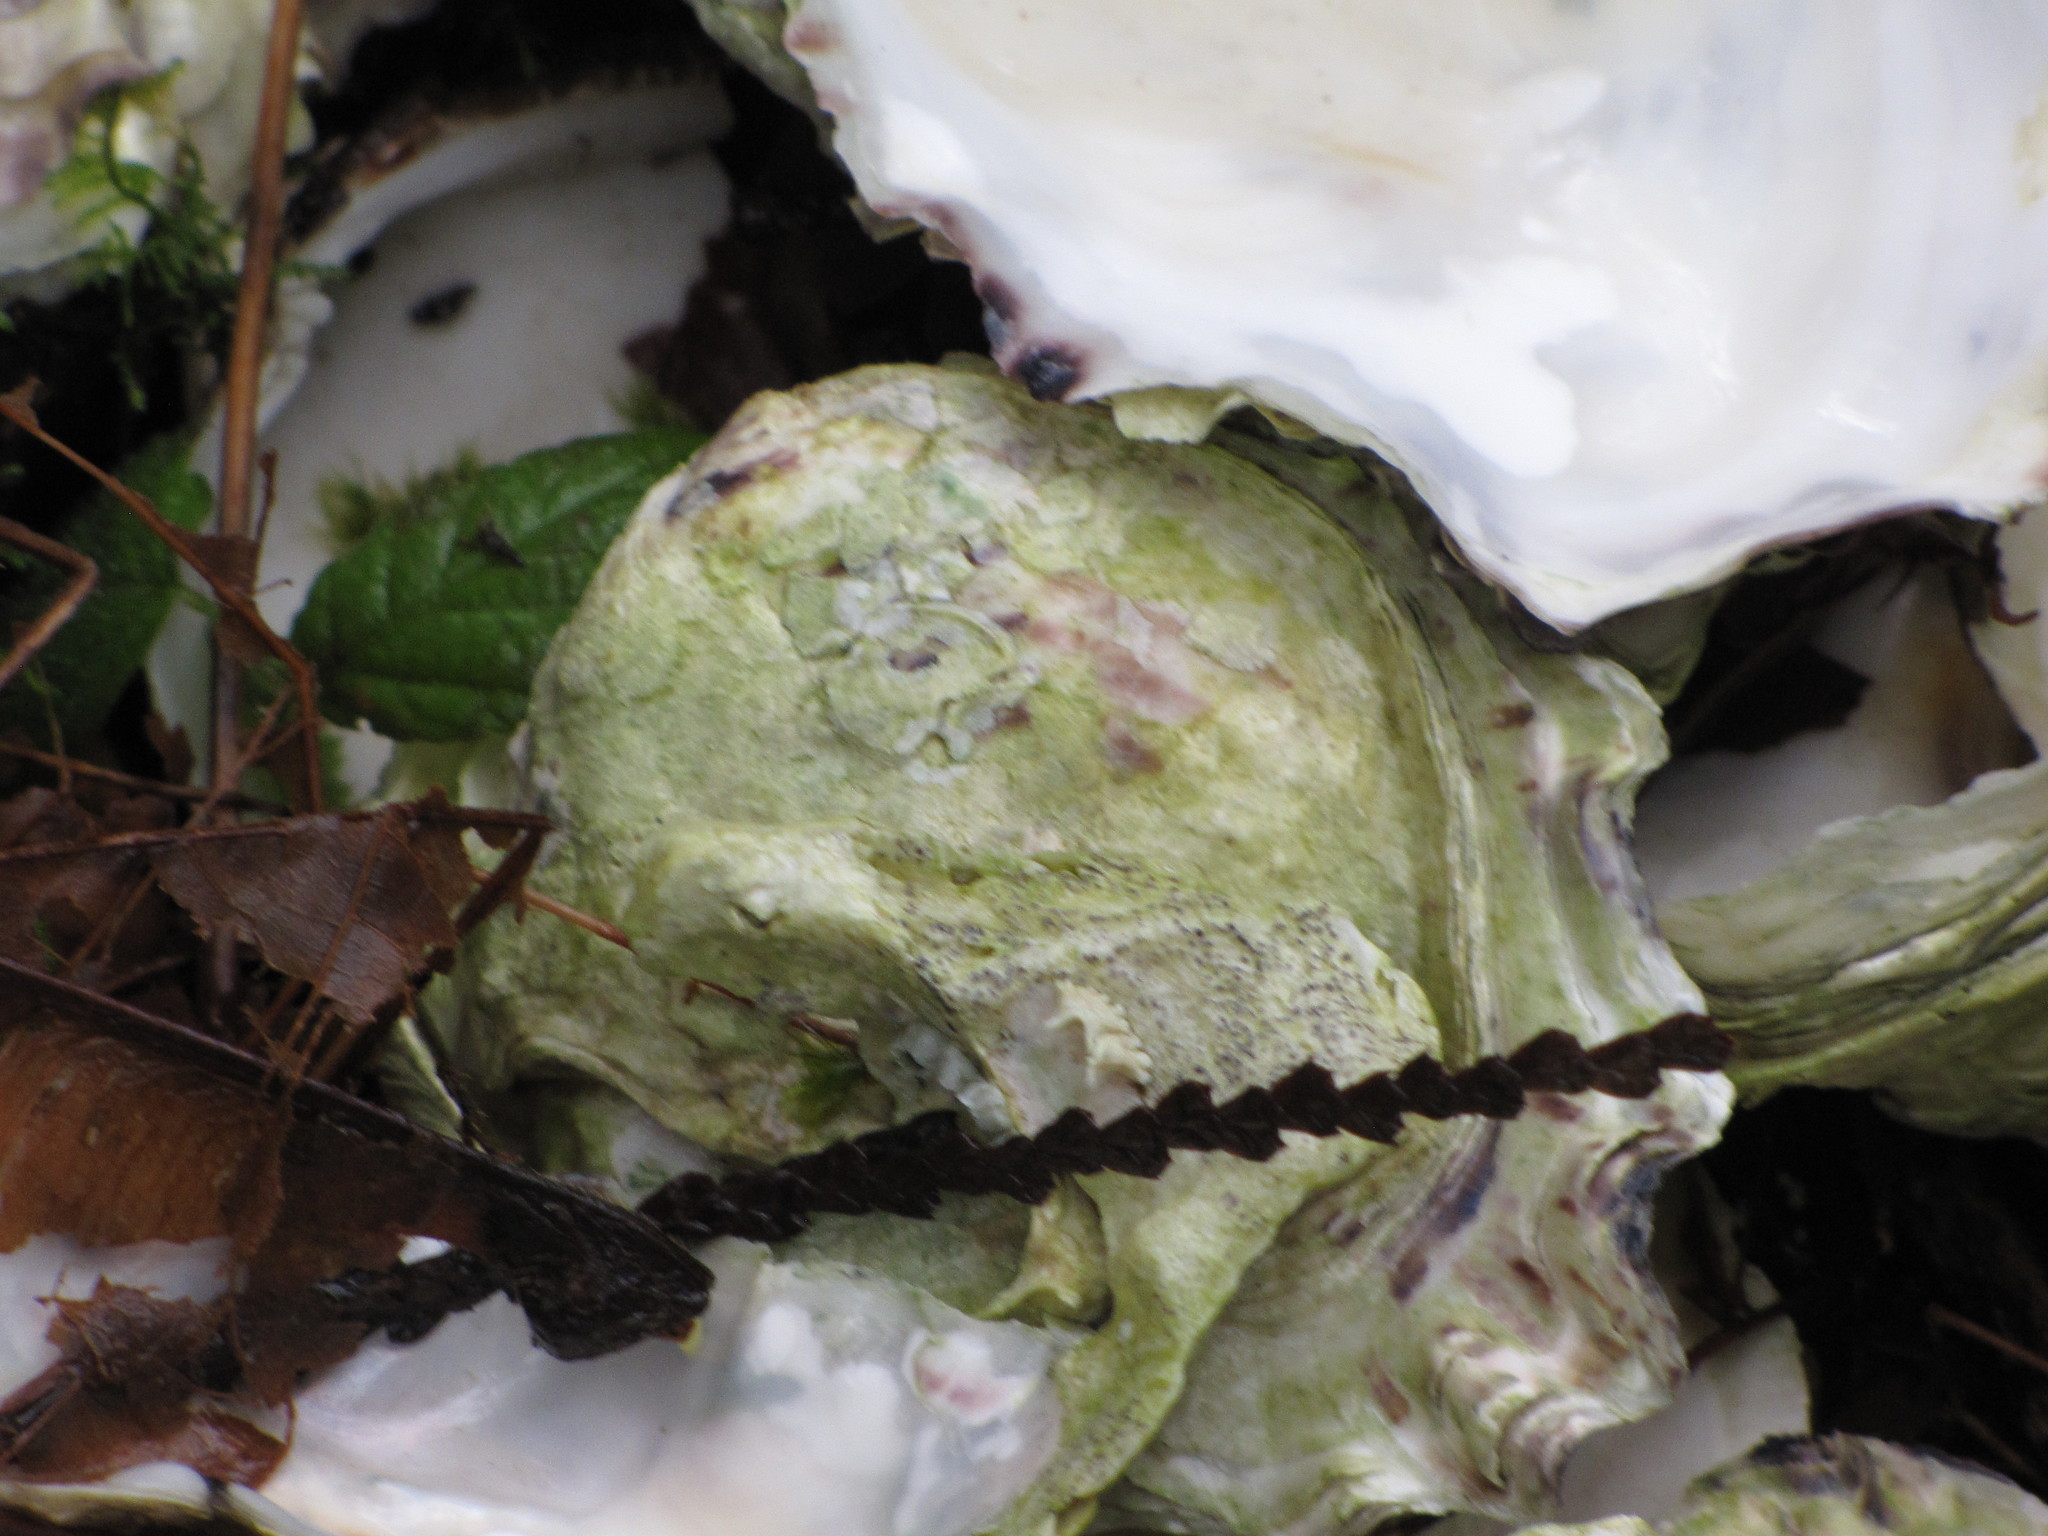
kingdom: Animalia
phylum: Mollusca
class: Bivalvia
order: Ostreida
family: Ostreidae
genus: Magallana
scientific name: Magallana gigas
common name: Pacific oyster
